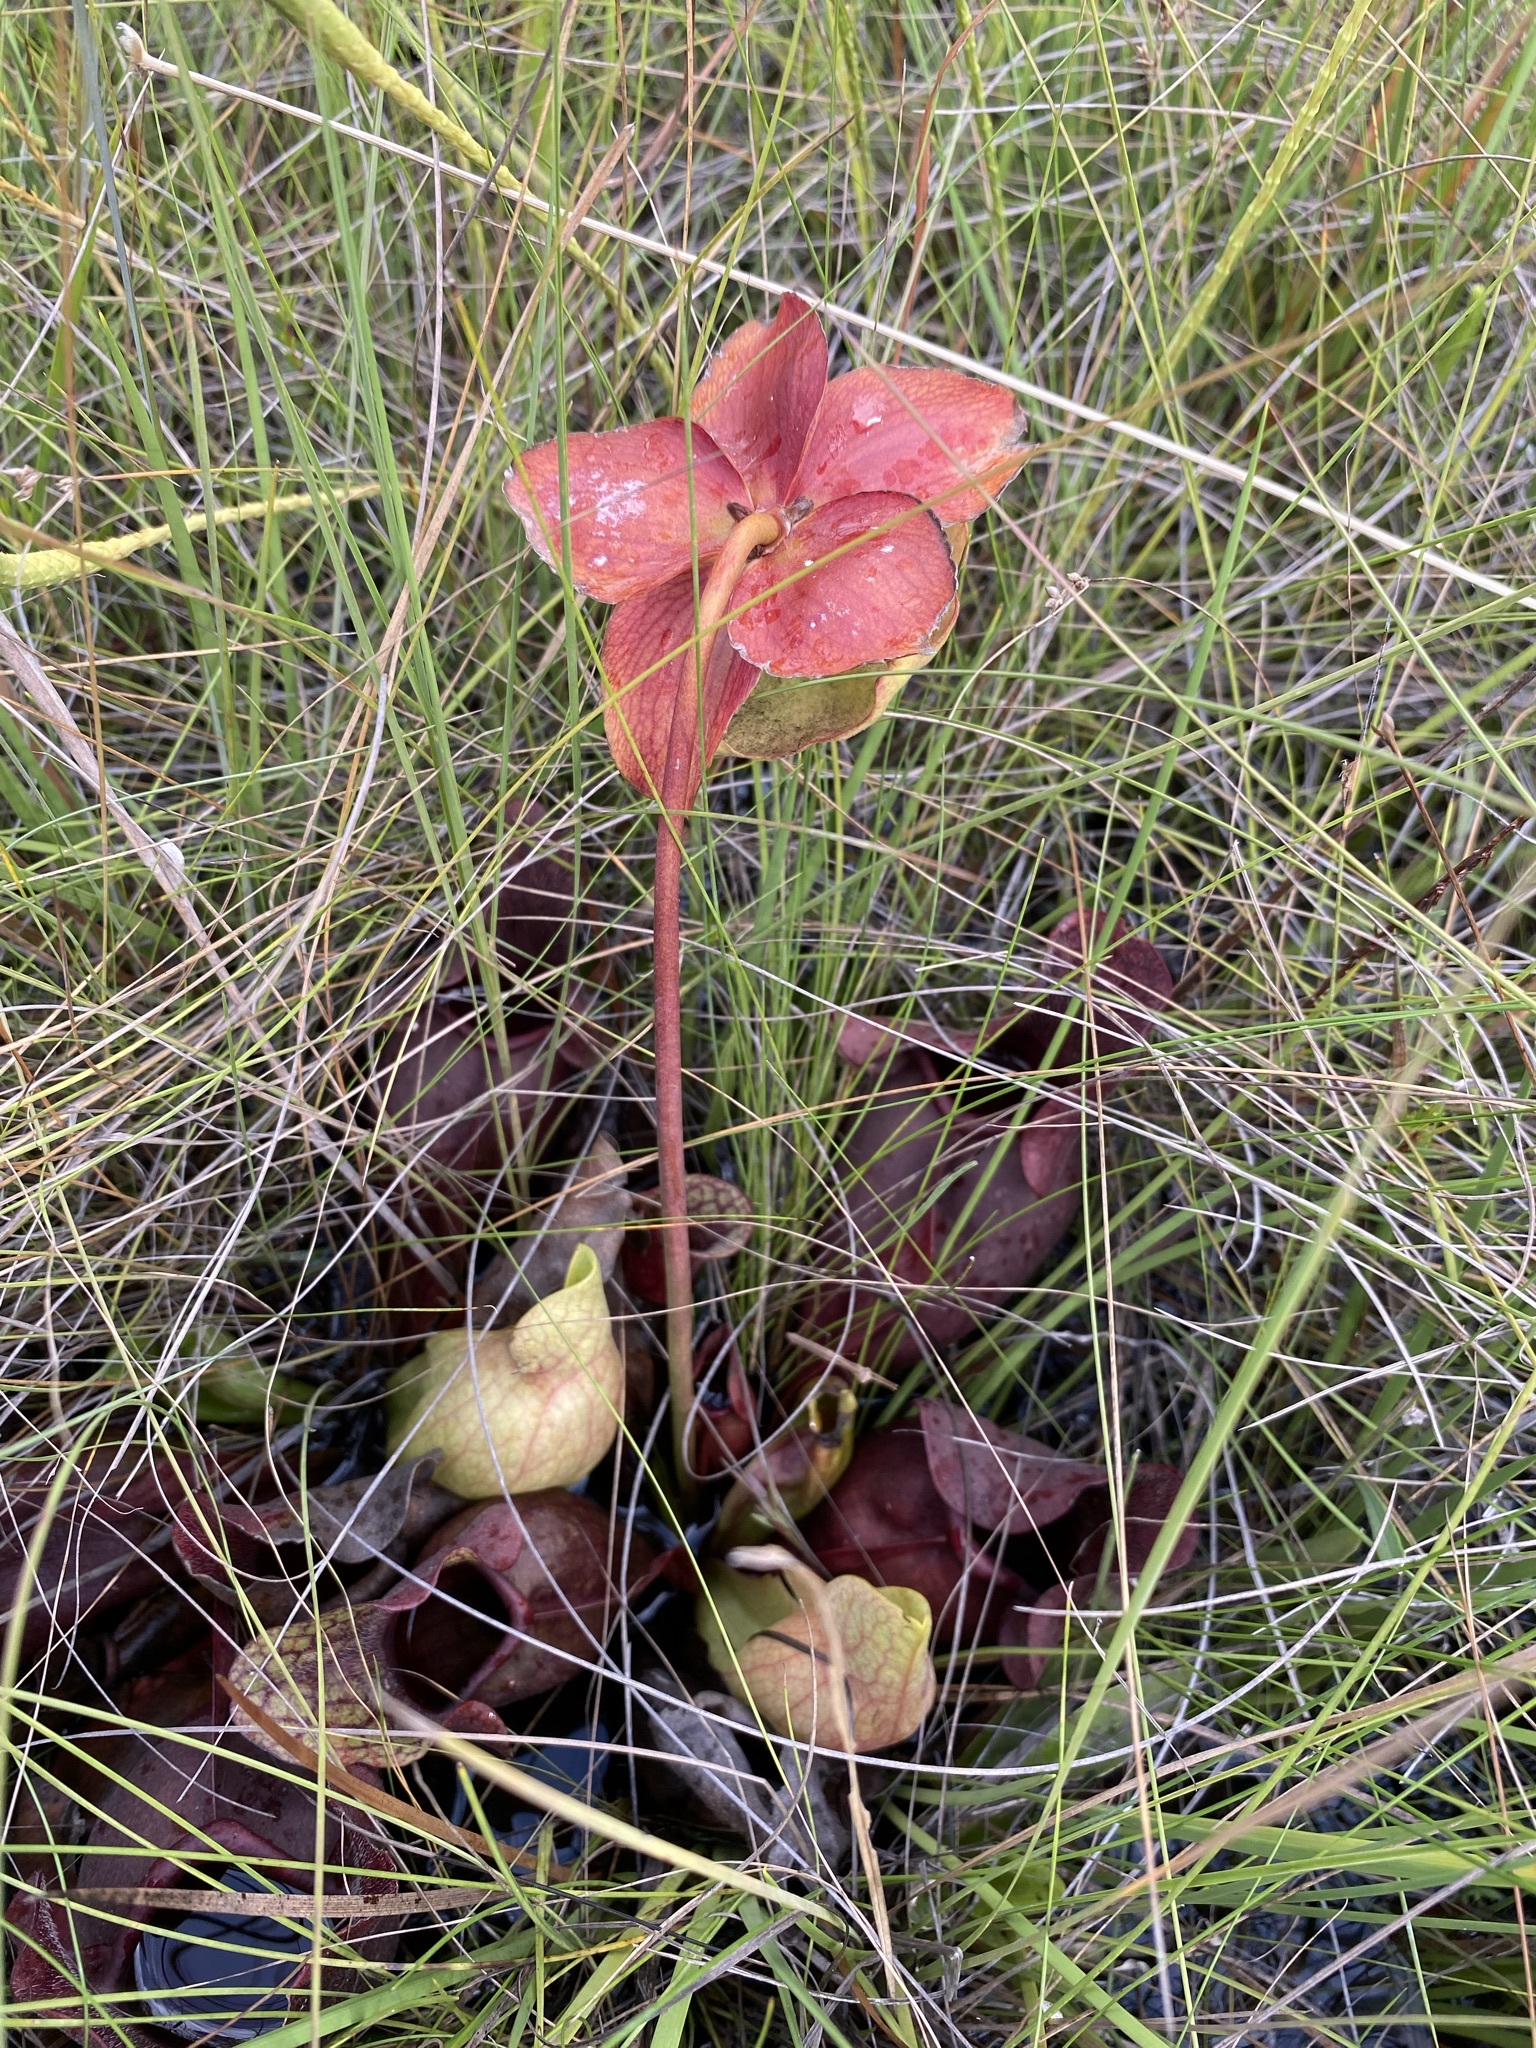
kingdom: Plantae
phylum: Tracheophyta
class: Magnoliopsida
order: Ericales
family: Sarraceniaceae
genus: Sarracenia
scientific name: Sarracenia rosea
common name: Pink pitcherplant
